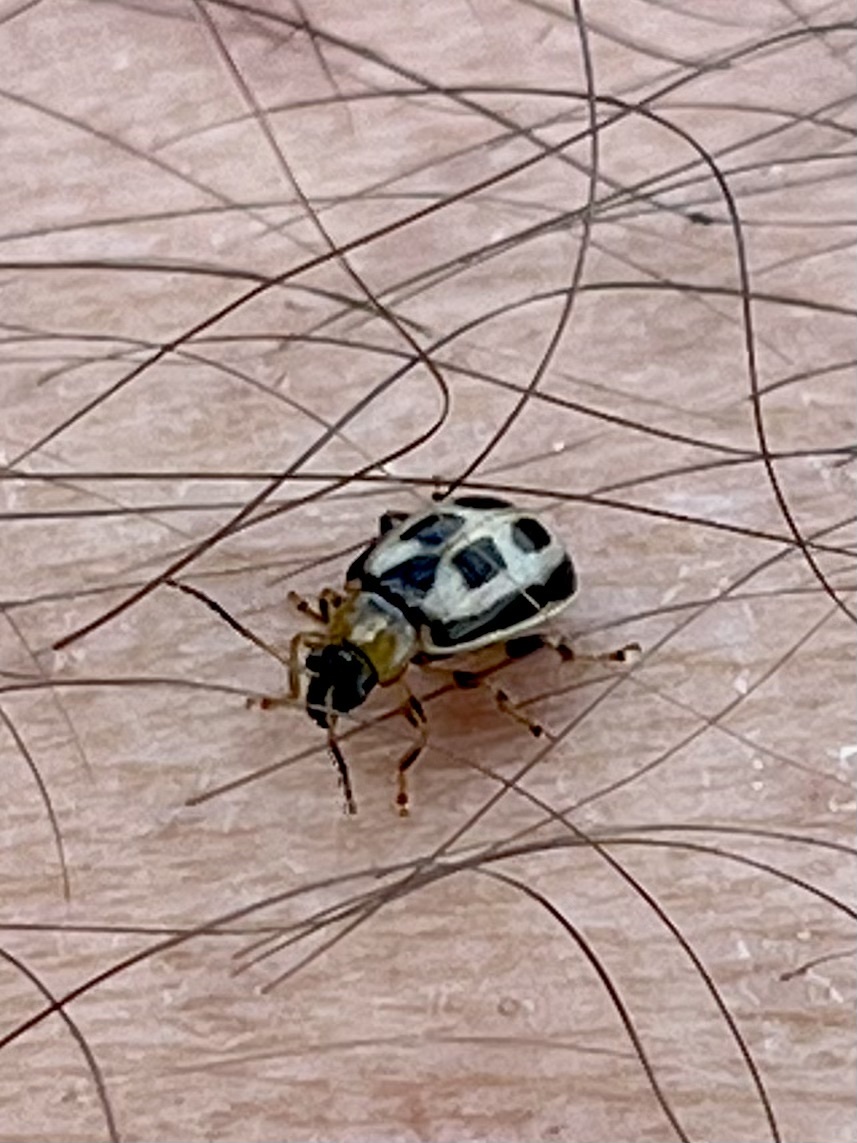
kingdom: Animalia
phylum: Arthropoda
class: Insecta
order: Coleoptera
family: Chrysomelidae
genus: Cerotoma
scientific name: Cerotoma trifurcata
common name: Bean leaf beetle
